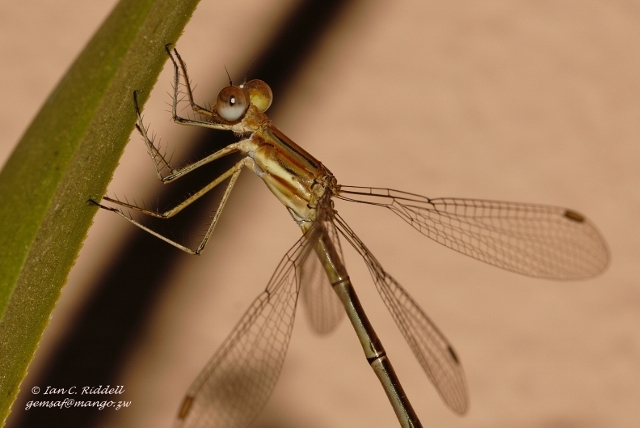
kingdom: Animalia
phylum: Arthropoda
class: Insecta
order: Odonata
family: Lestidae
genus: Lestes
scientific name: Lestes plagiatus
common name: Highland spreadwing
